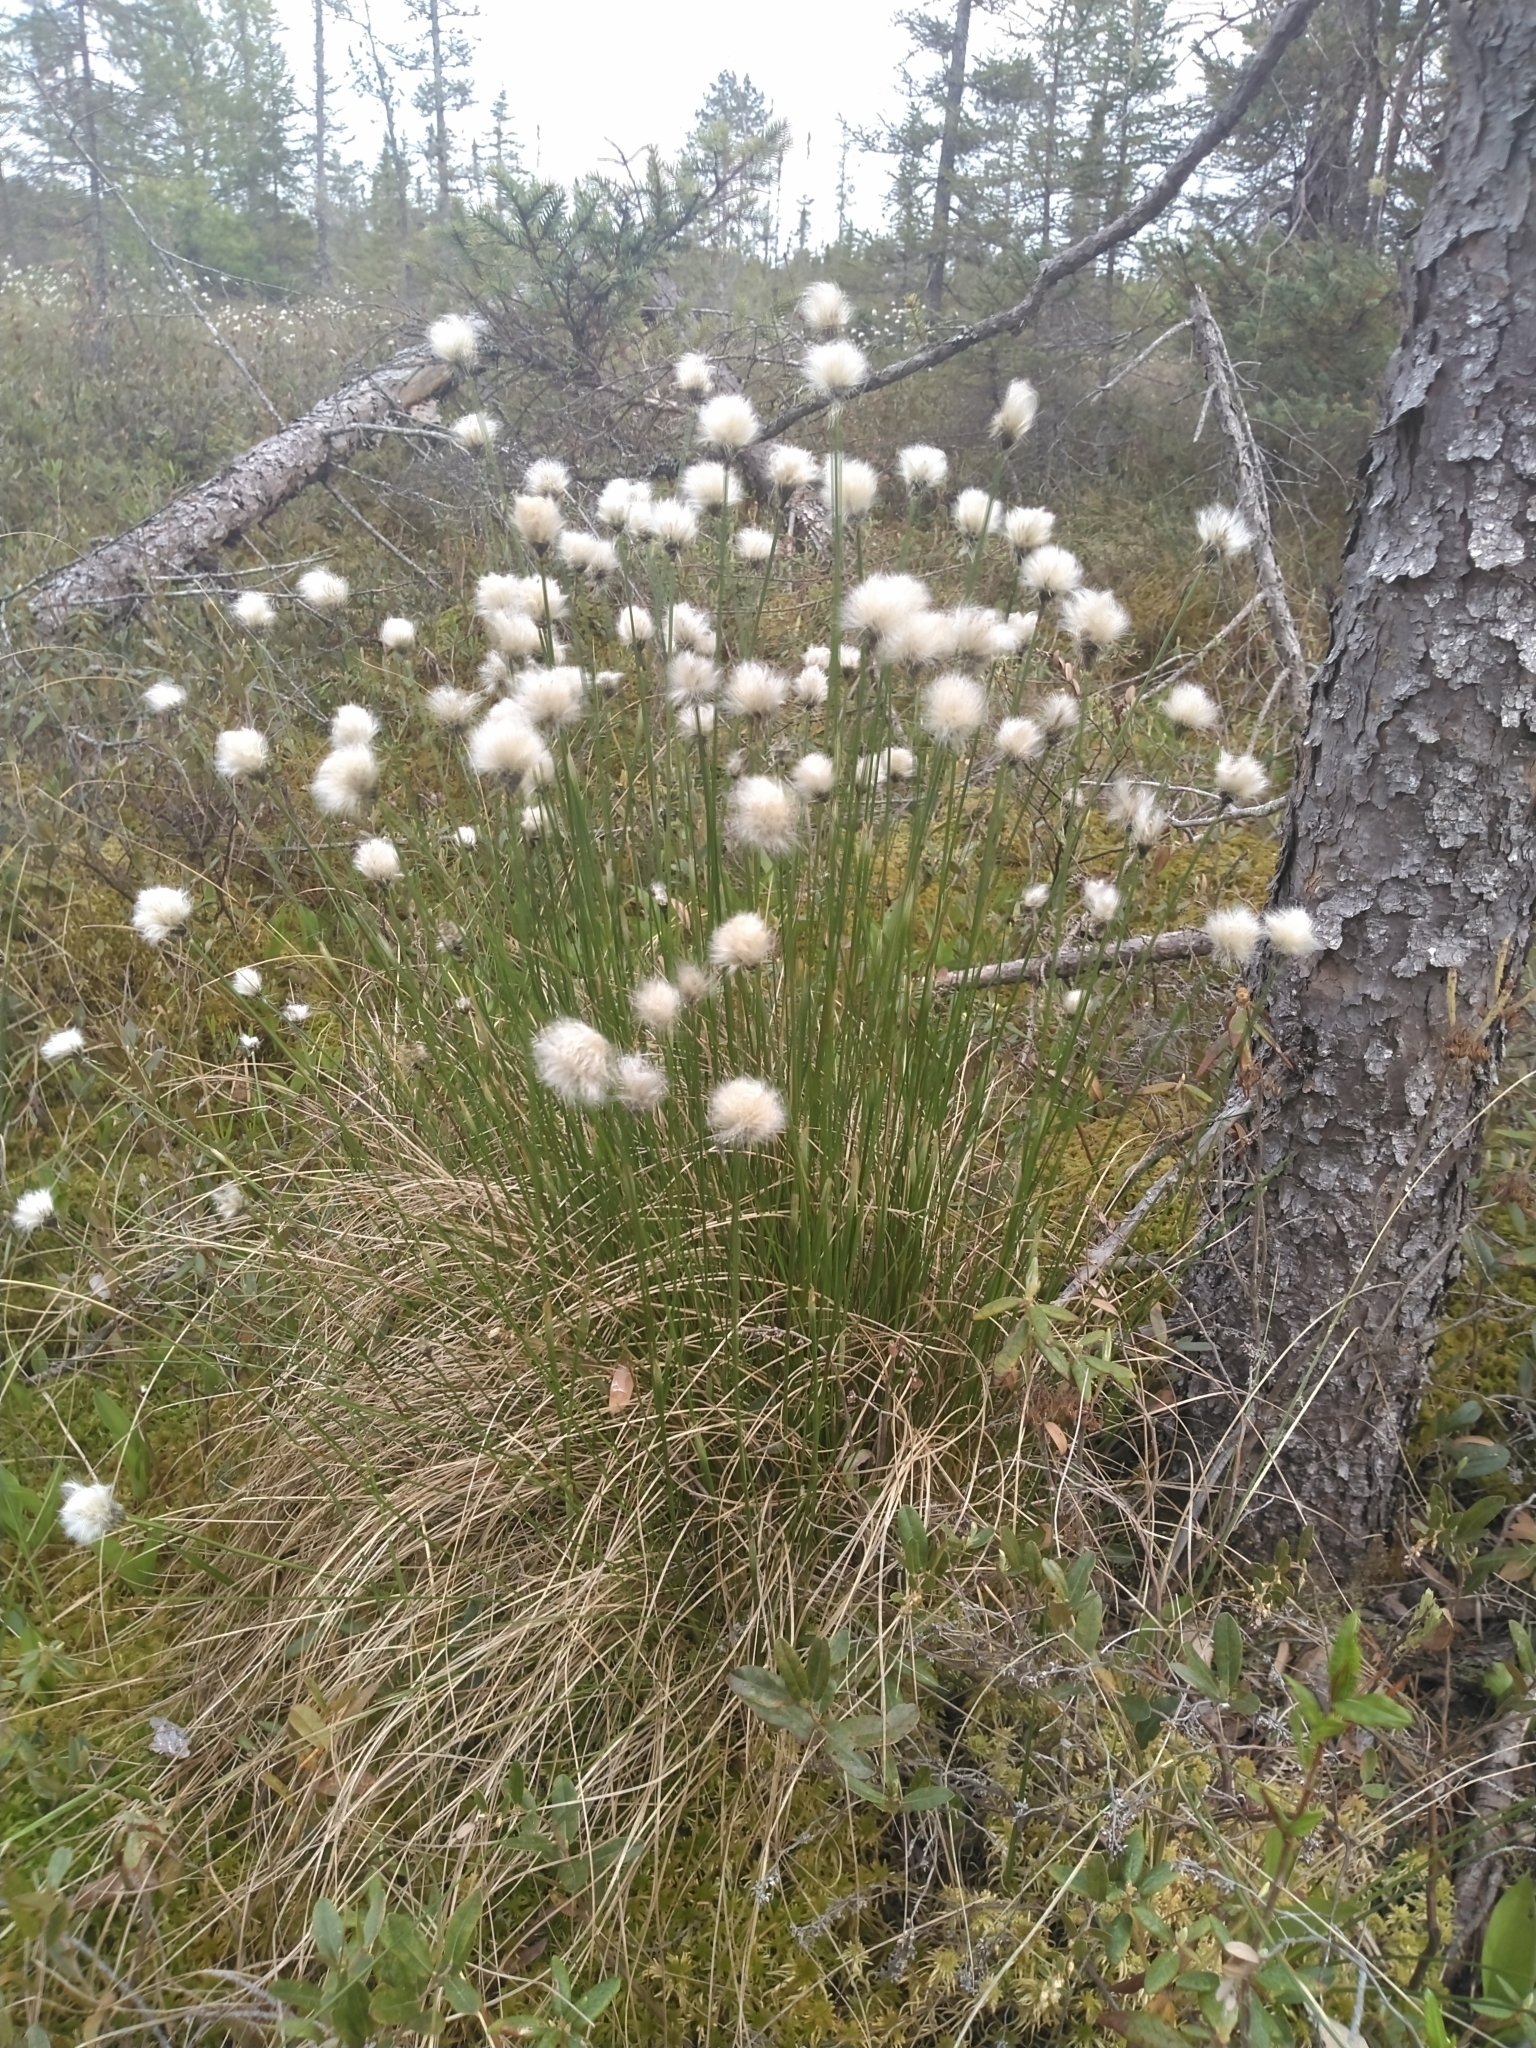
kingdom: Plantae
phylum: Tracheophyta
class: Liliopsida
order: Poales
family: Cyperaceae
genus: Eriophorum
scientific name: Eriophorum vaginatum
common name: Hare's-tail cottongrass
